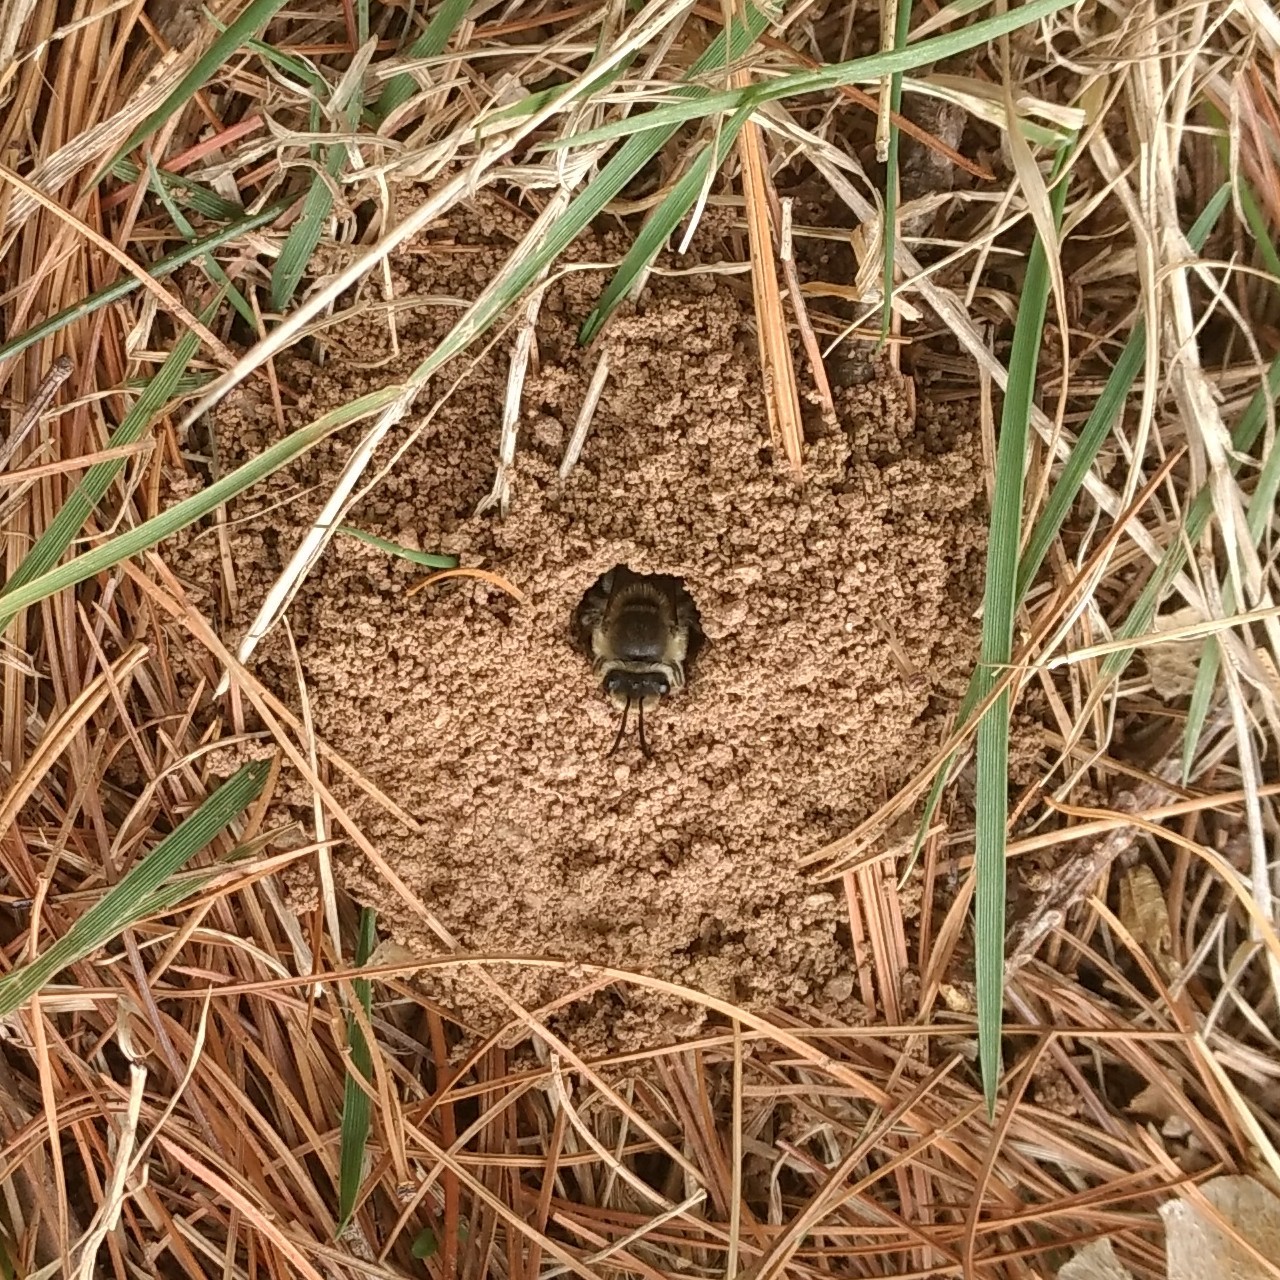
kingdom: Animalia
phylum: Arthropoda
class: Insecta
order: Hymenoptera
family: Colletidae
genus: Colletes
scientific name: Colletes inaequalis
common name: Unequal cellophane bee
